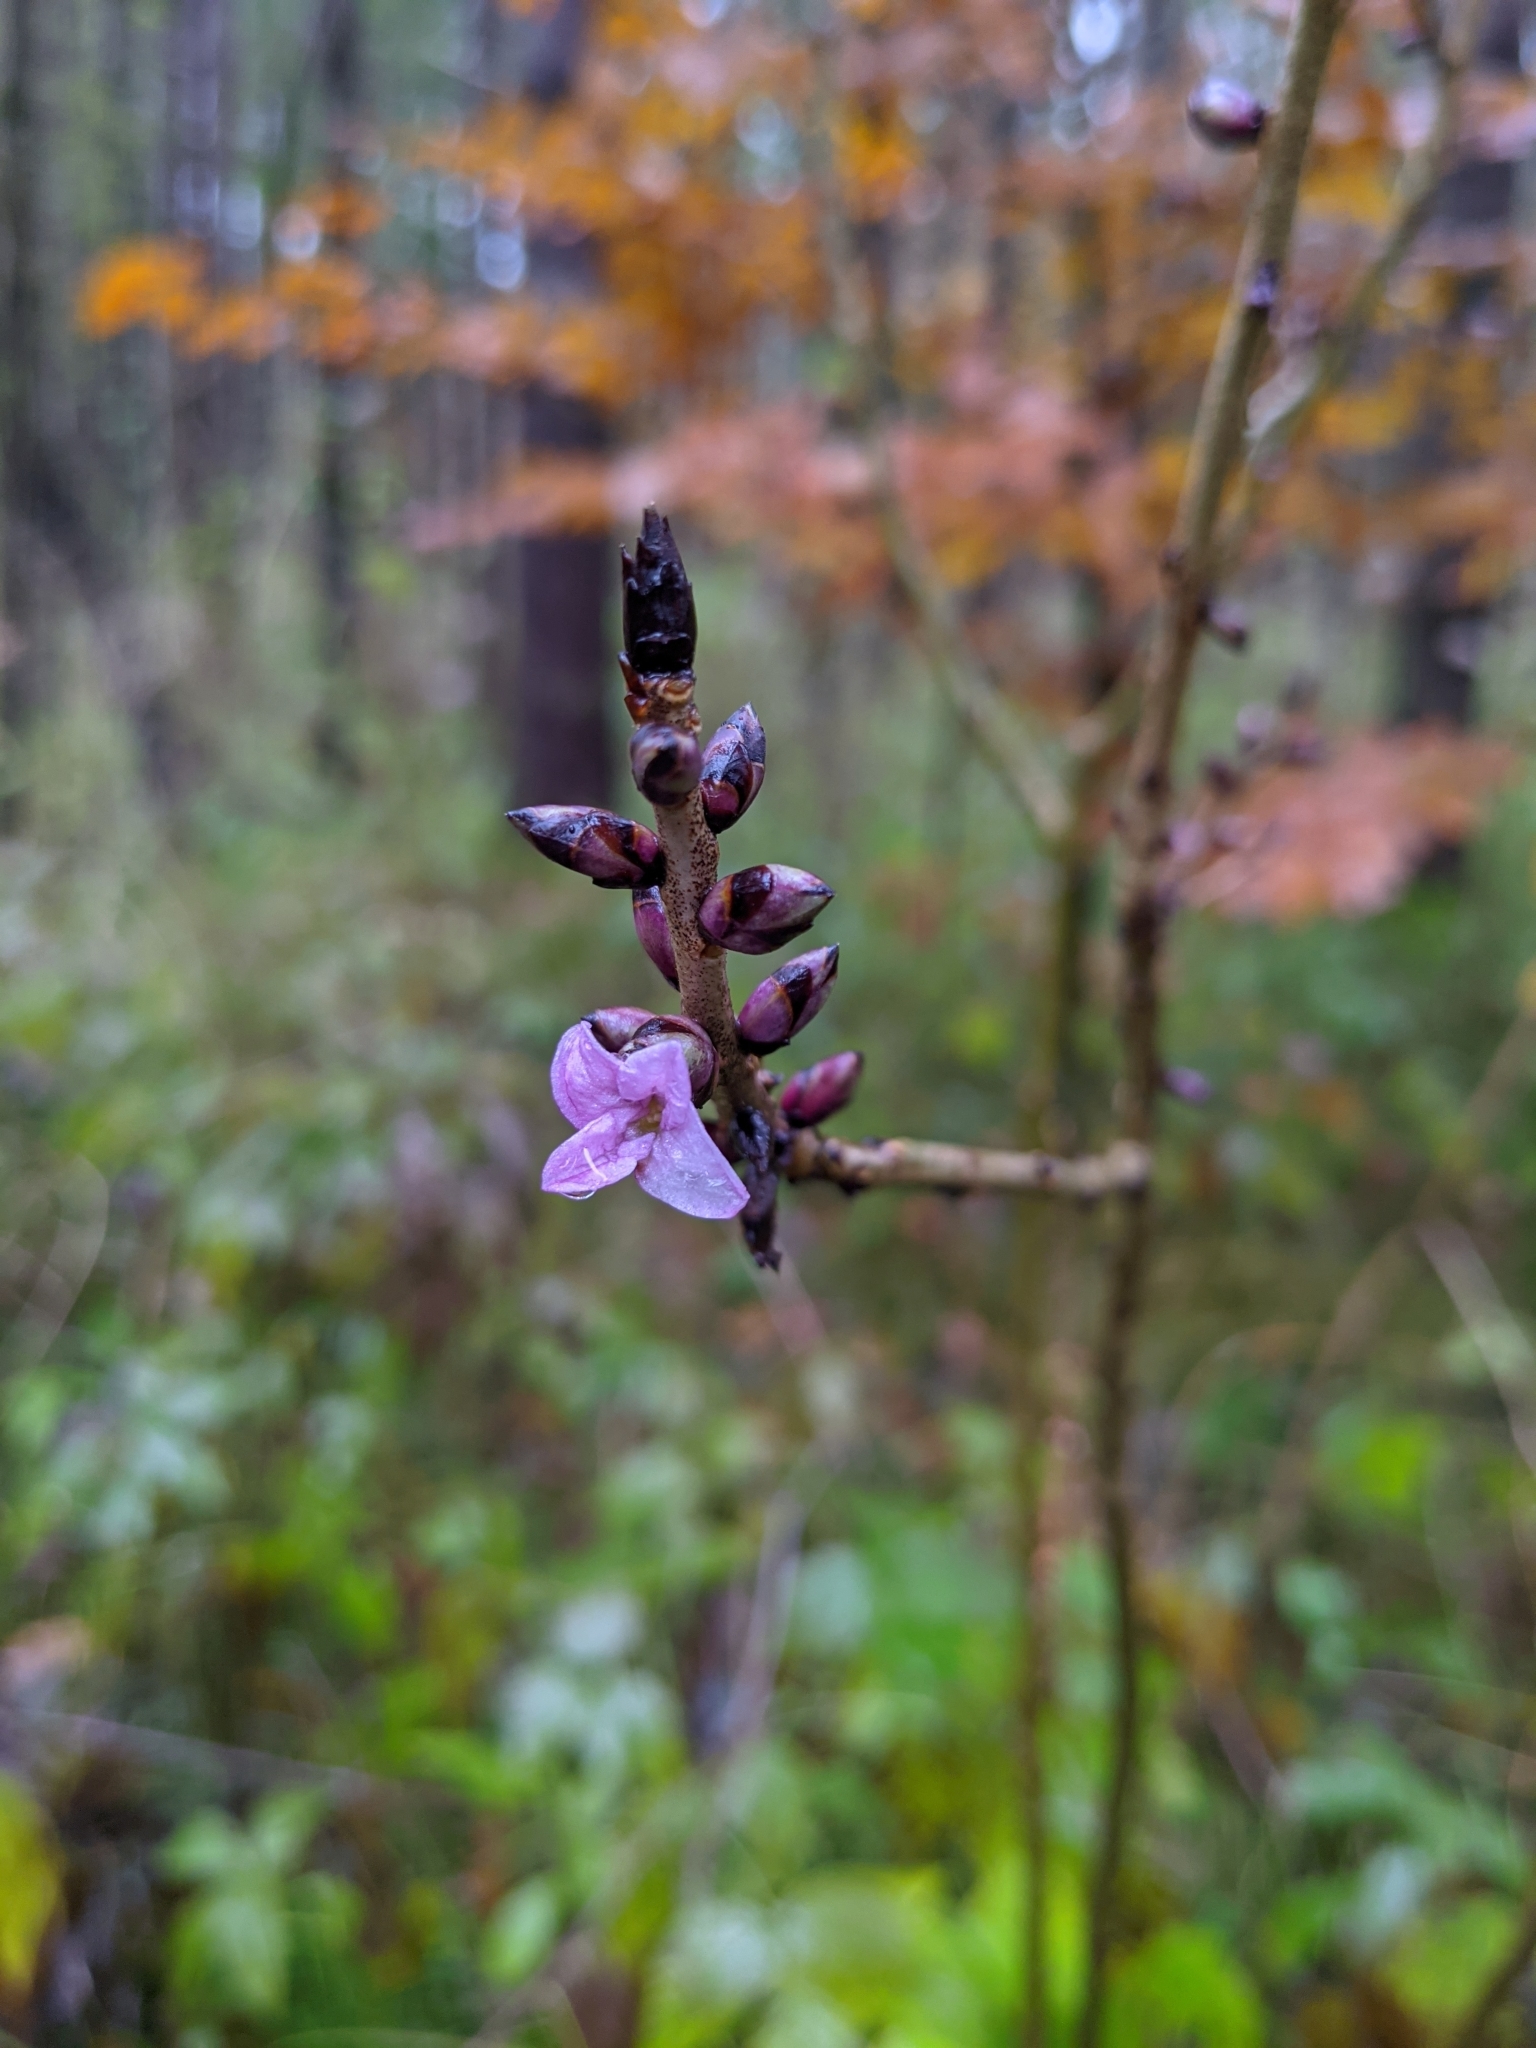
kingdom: Plantae
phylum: Tracheophyta
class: Magnoliopsida
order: Malvales
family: Thymelaeaceae
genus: Daphne
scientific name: Daphne mezereum
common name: Mezereon
